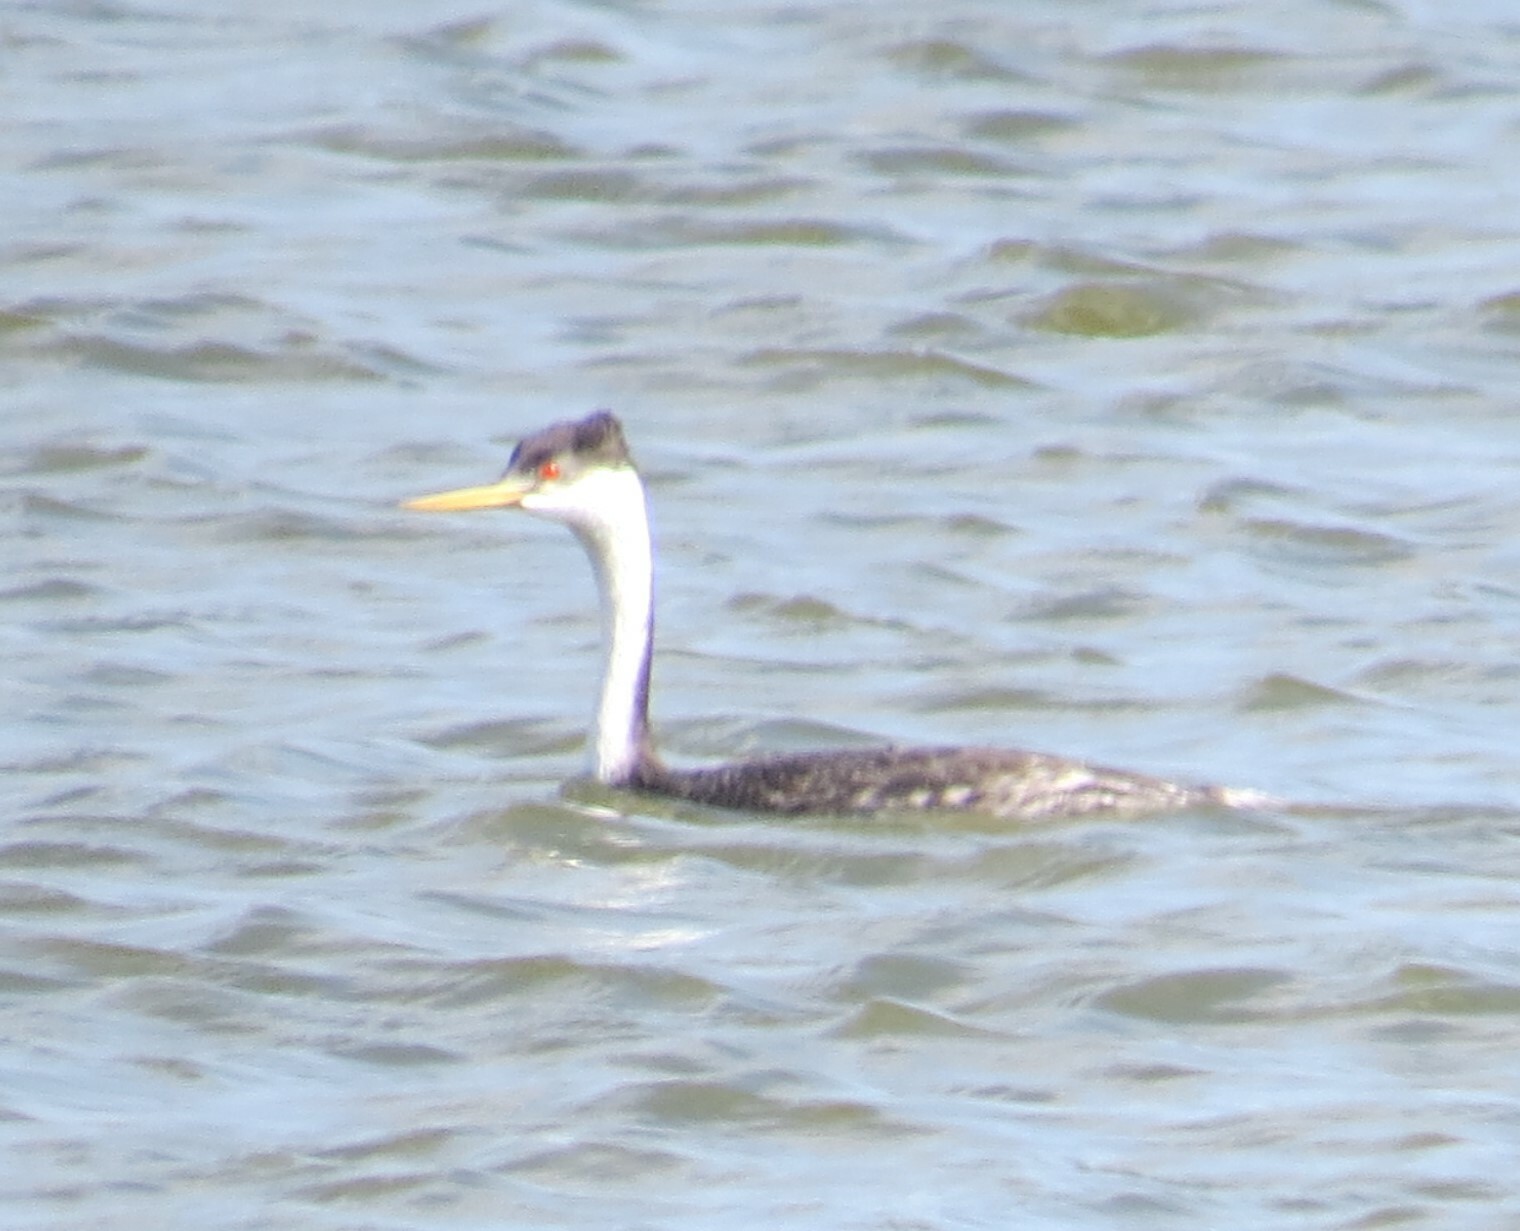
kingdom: Animalia
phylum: Chordata
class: Aves
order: Podicipediformes
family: Podicipedidae
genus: Aechmophorus
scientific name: Aechmophorus occidentalis
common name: Western grebe
